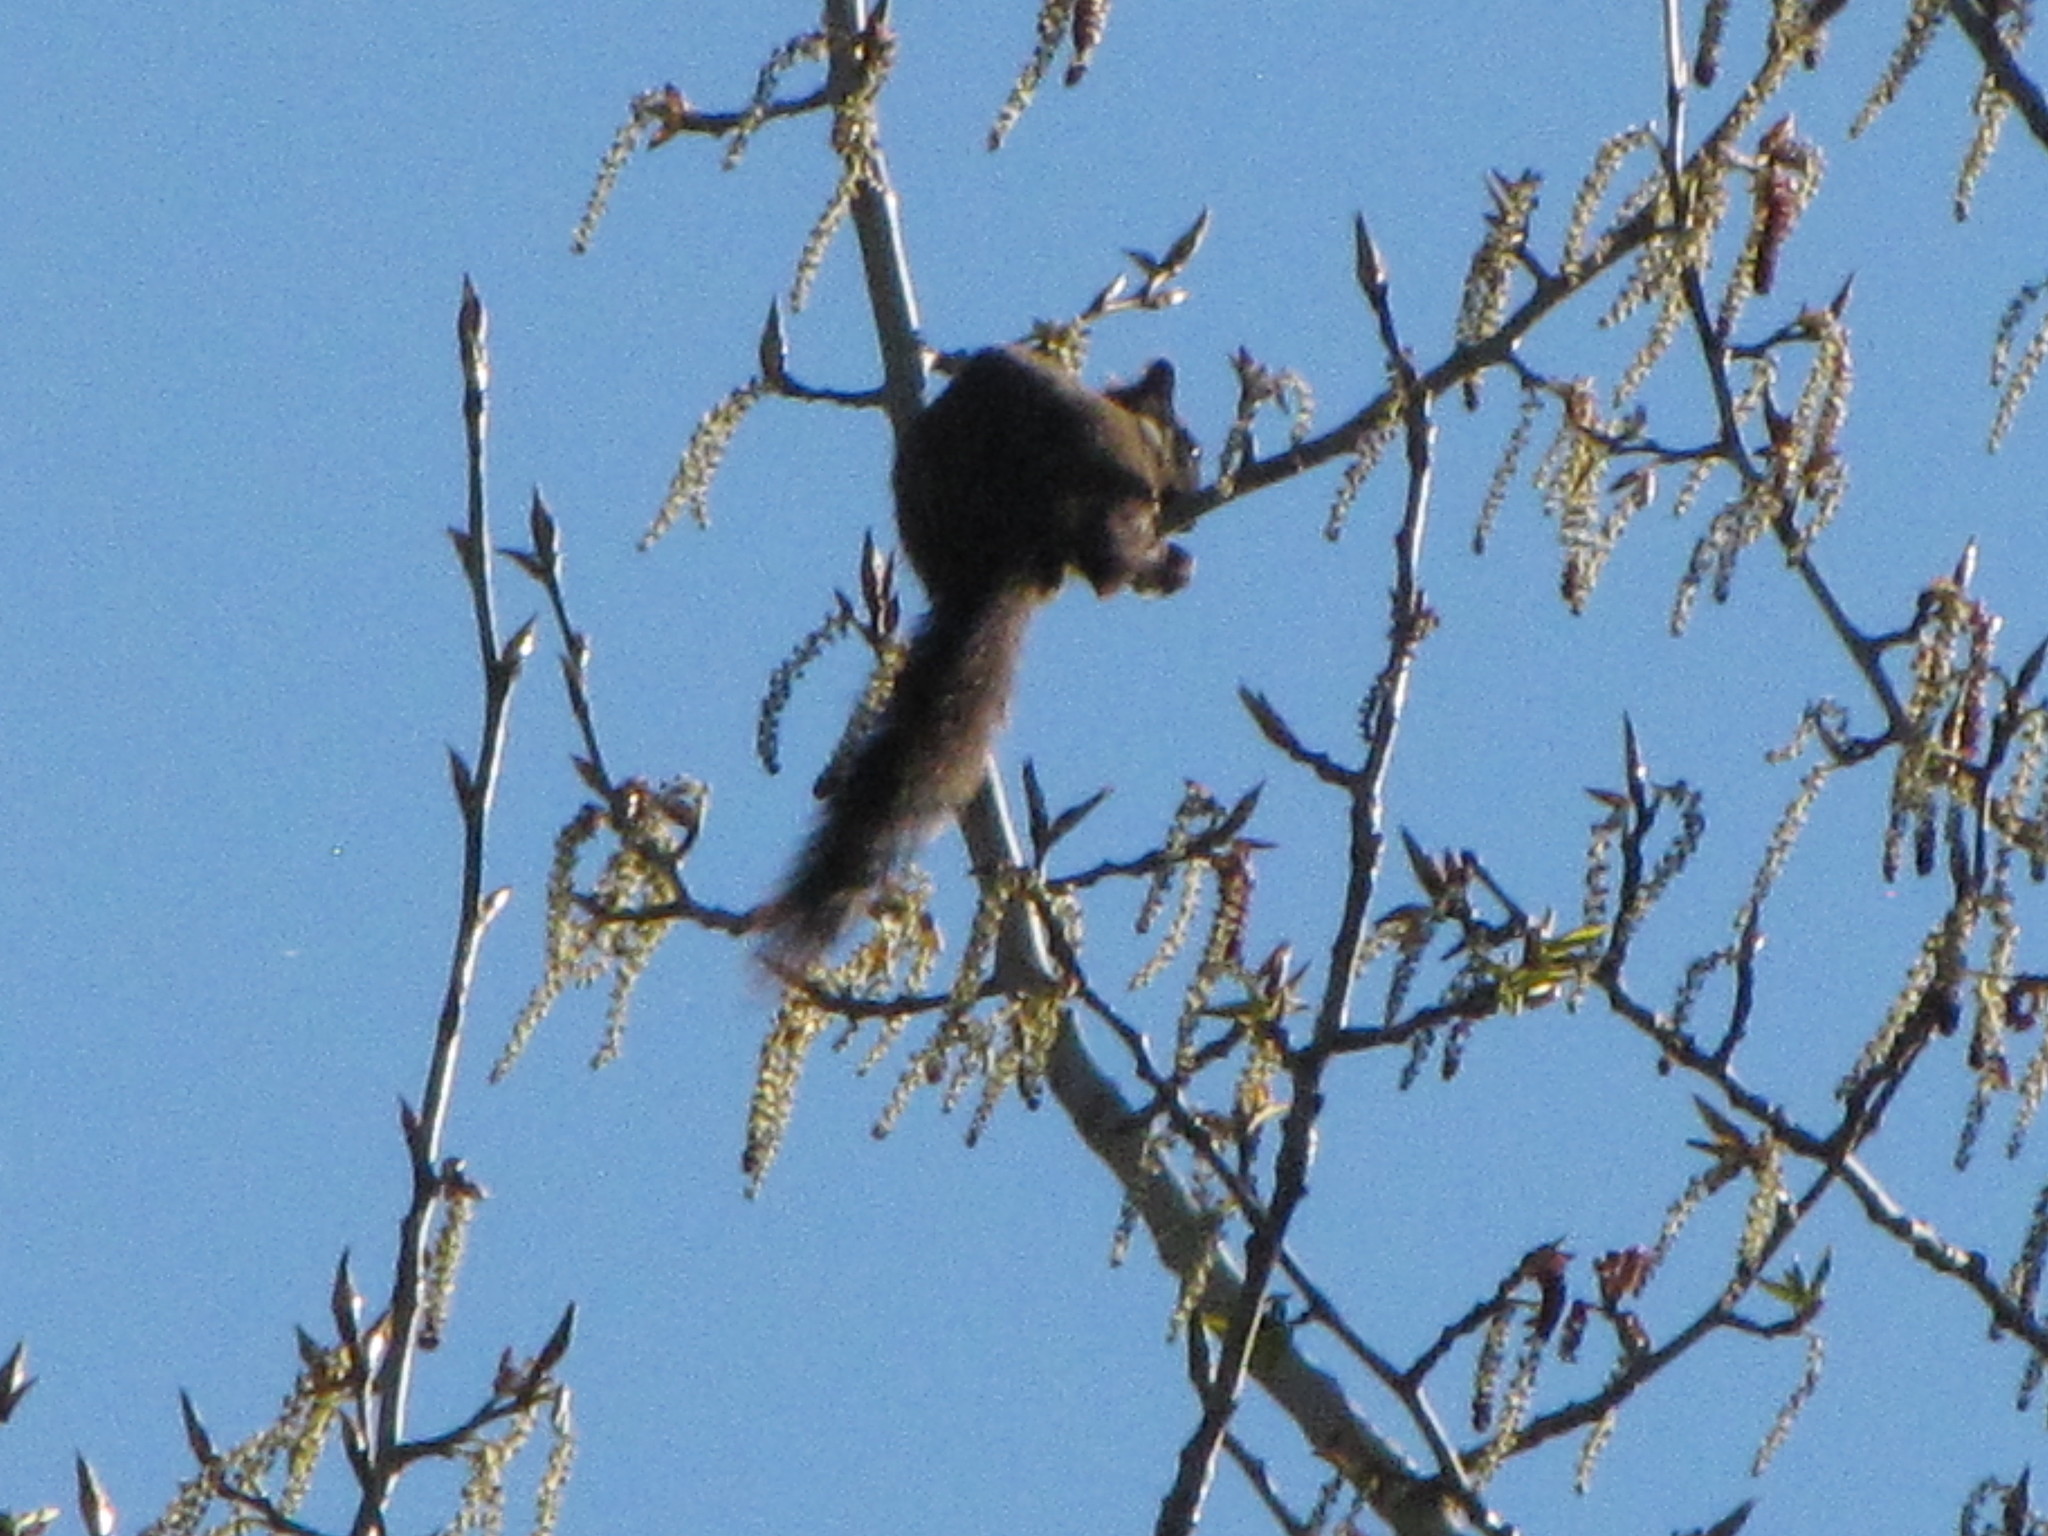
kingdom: Animalia
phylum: Chordata
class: Mammalia
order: Rodentia
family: Sciuridae
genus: Sciurus
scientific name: Sciurus carolinensis
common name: Eastern gray squirrel
